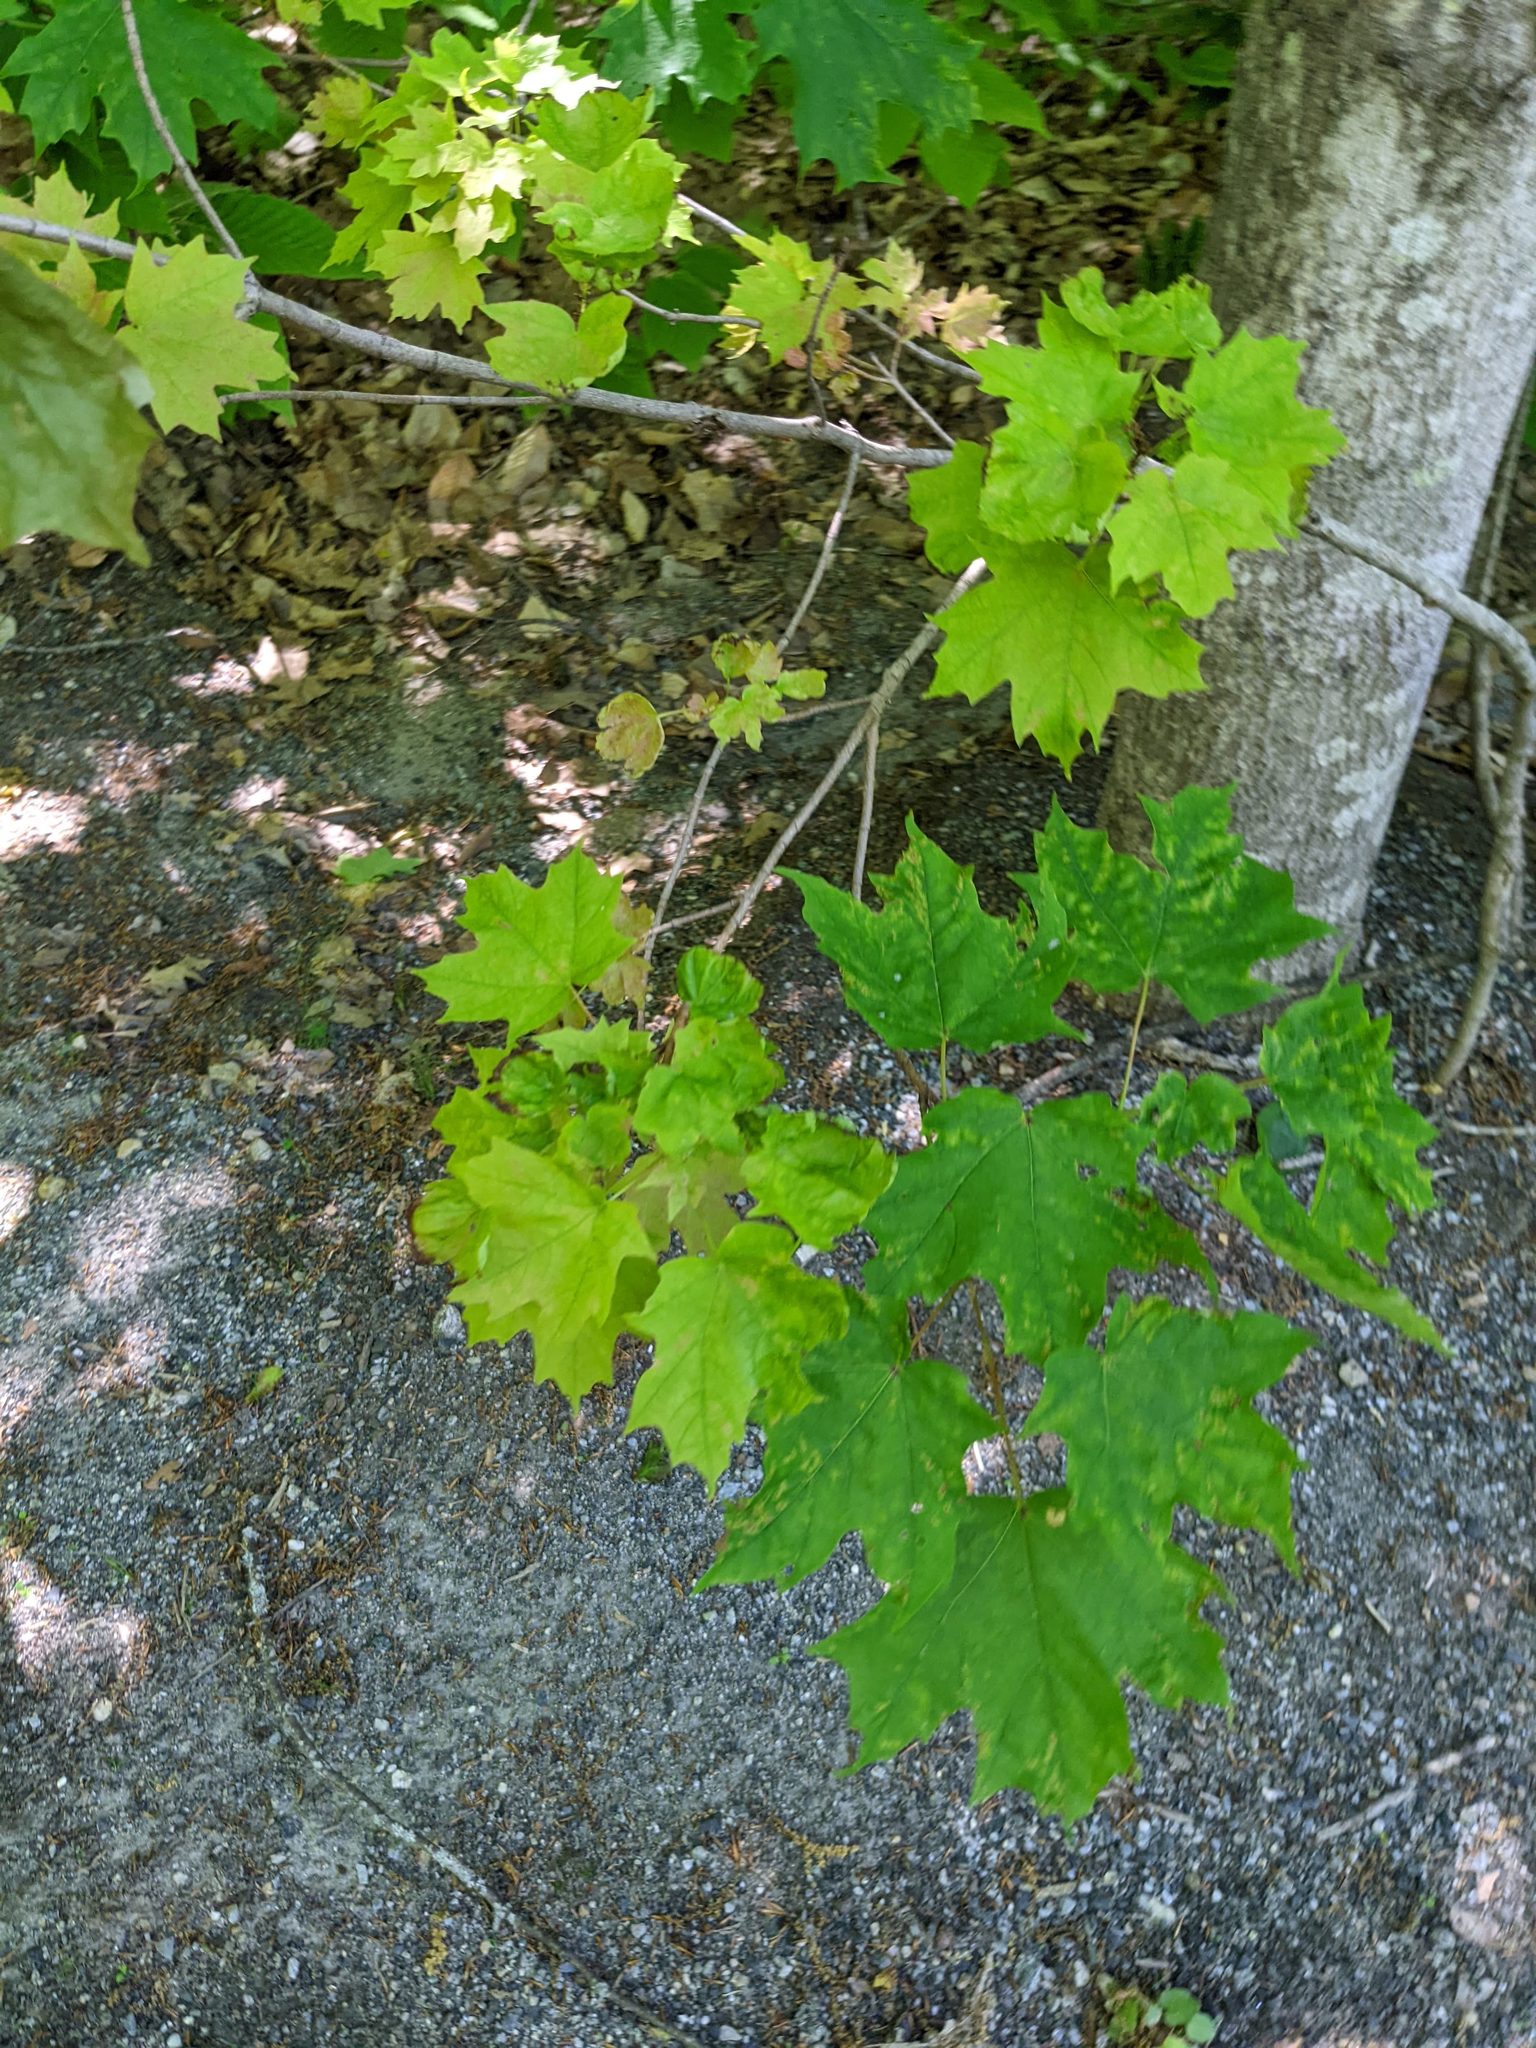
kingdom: Plantae
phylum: Tracheophyta
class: Magnoliopsida
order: Sapindales
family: Sapindaceae
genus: Acer
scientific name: Acer saccharum
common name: Sugar maple
